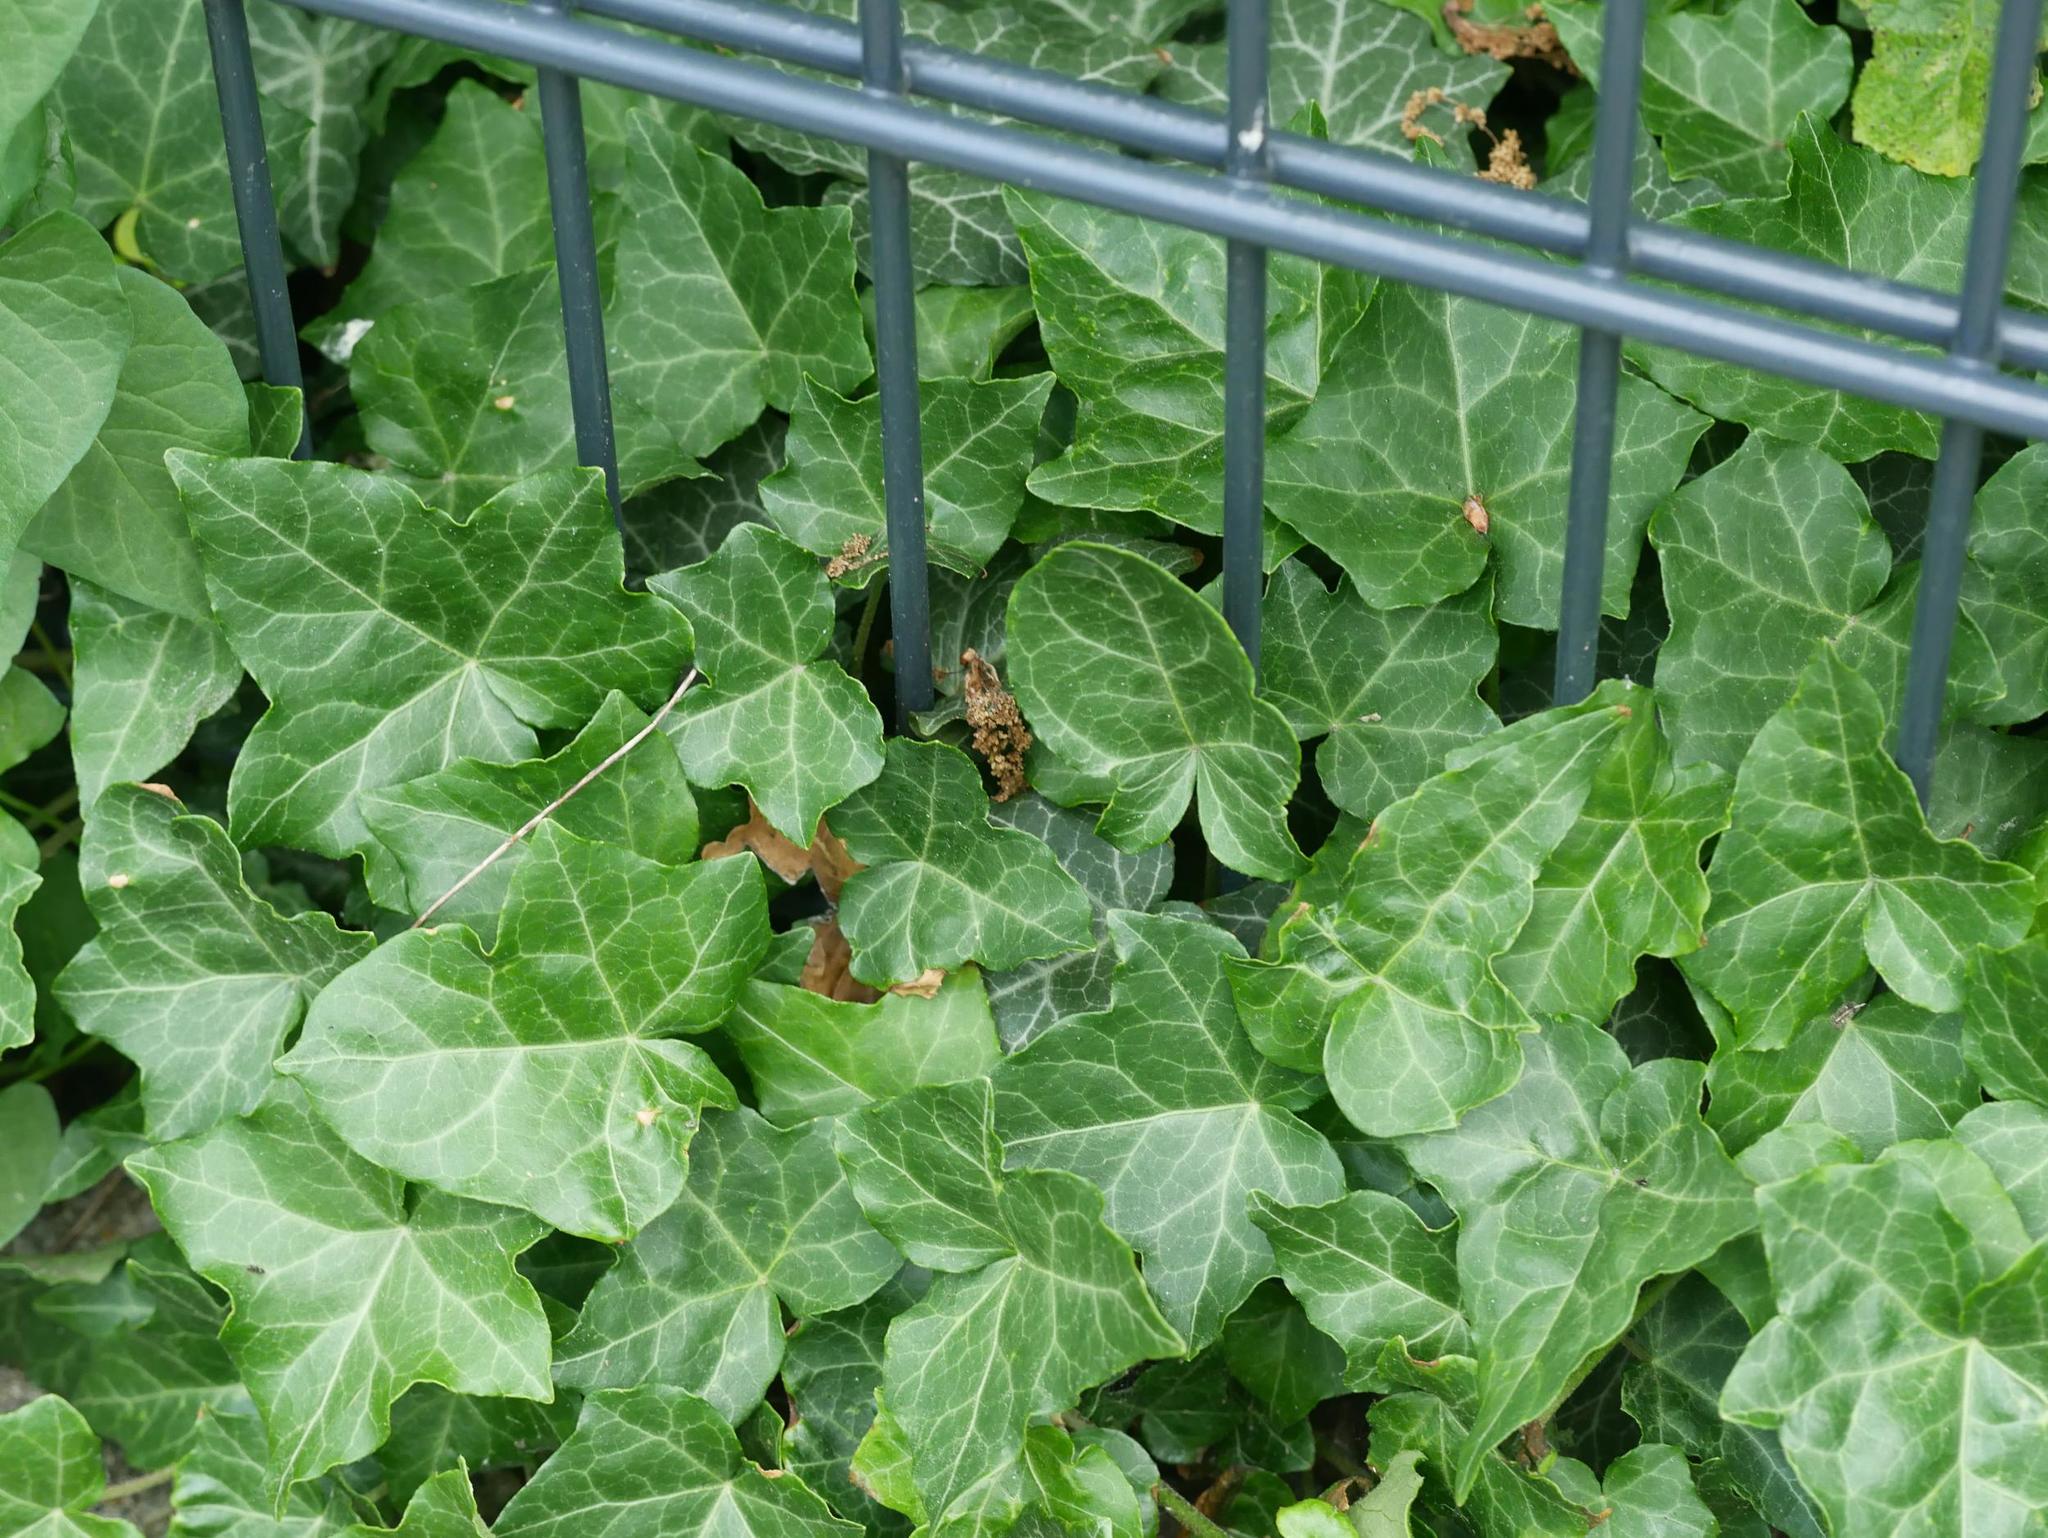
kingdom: Plantae
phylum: Tracheophyta
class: Magnoliopsida
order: Apiales
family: Araliaceae
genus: Hedera
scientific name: Hedera helix
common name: Ivy
